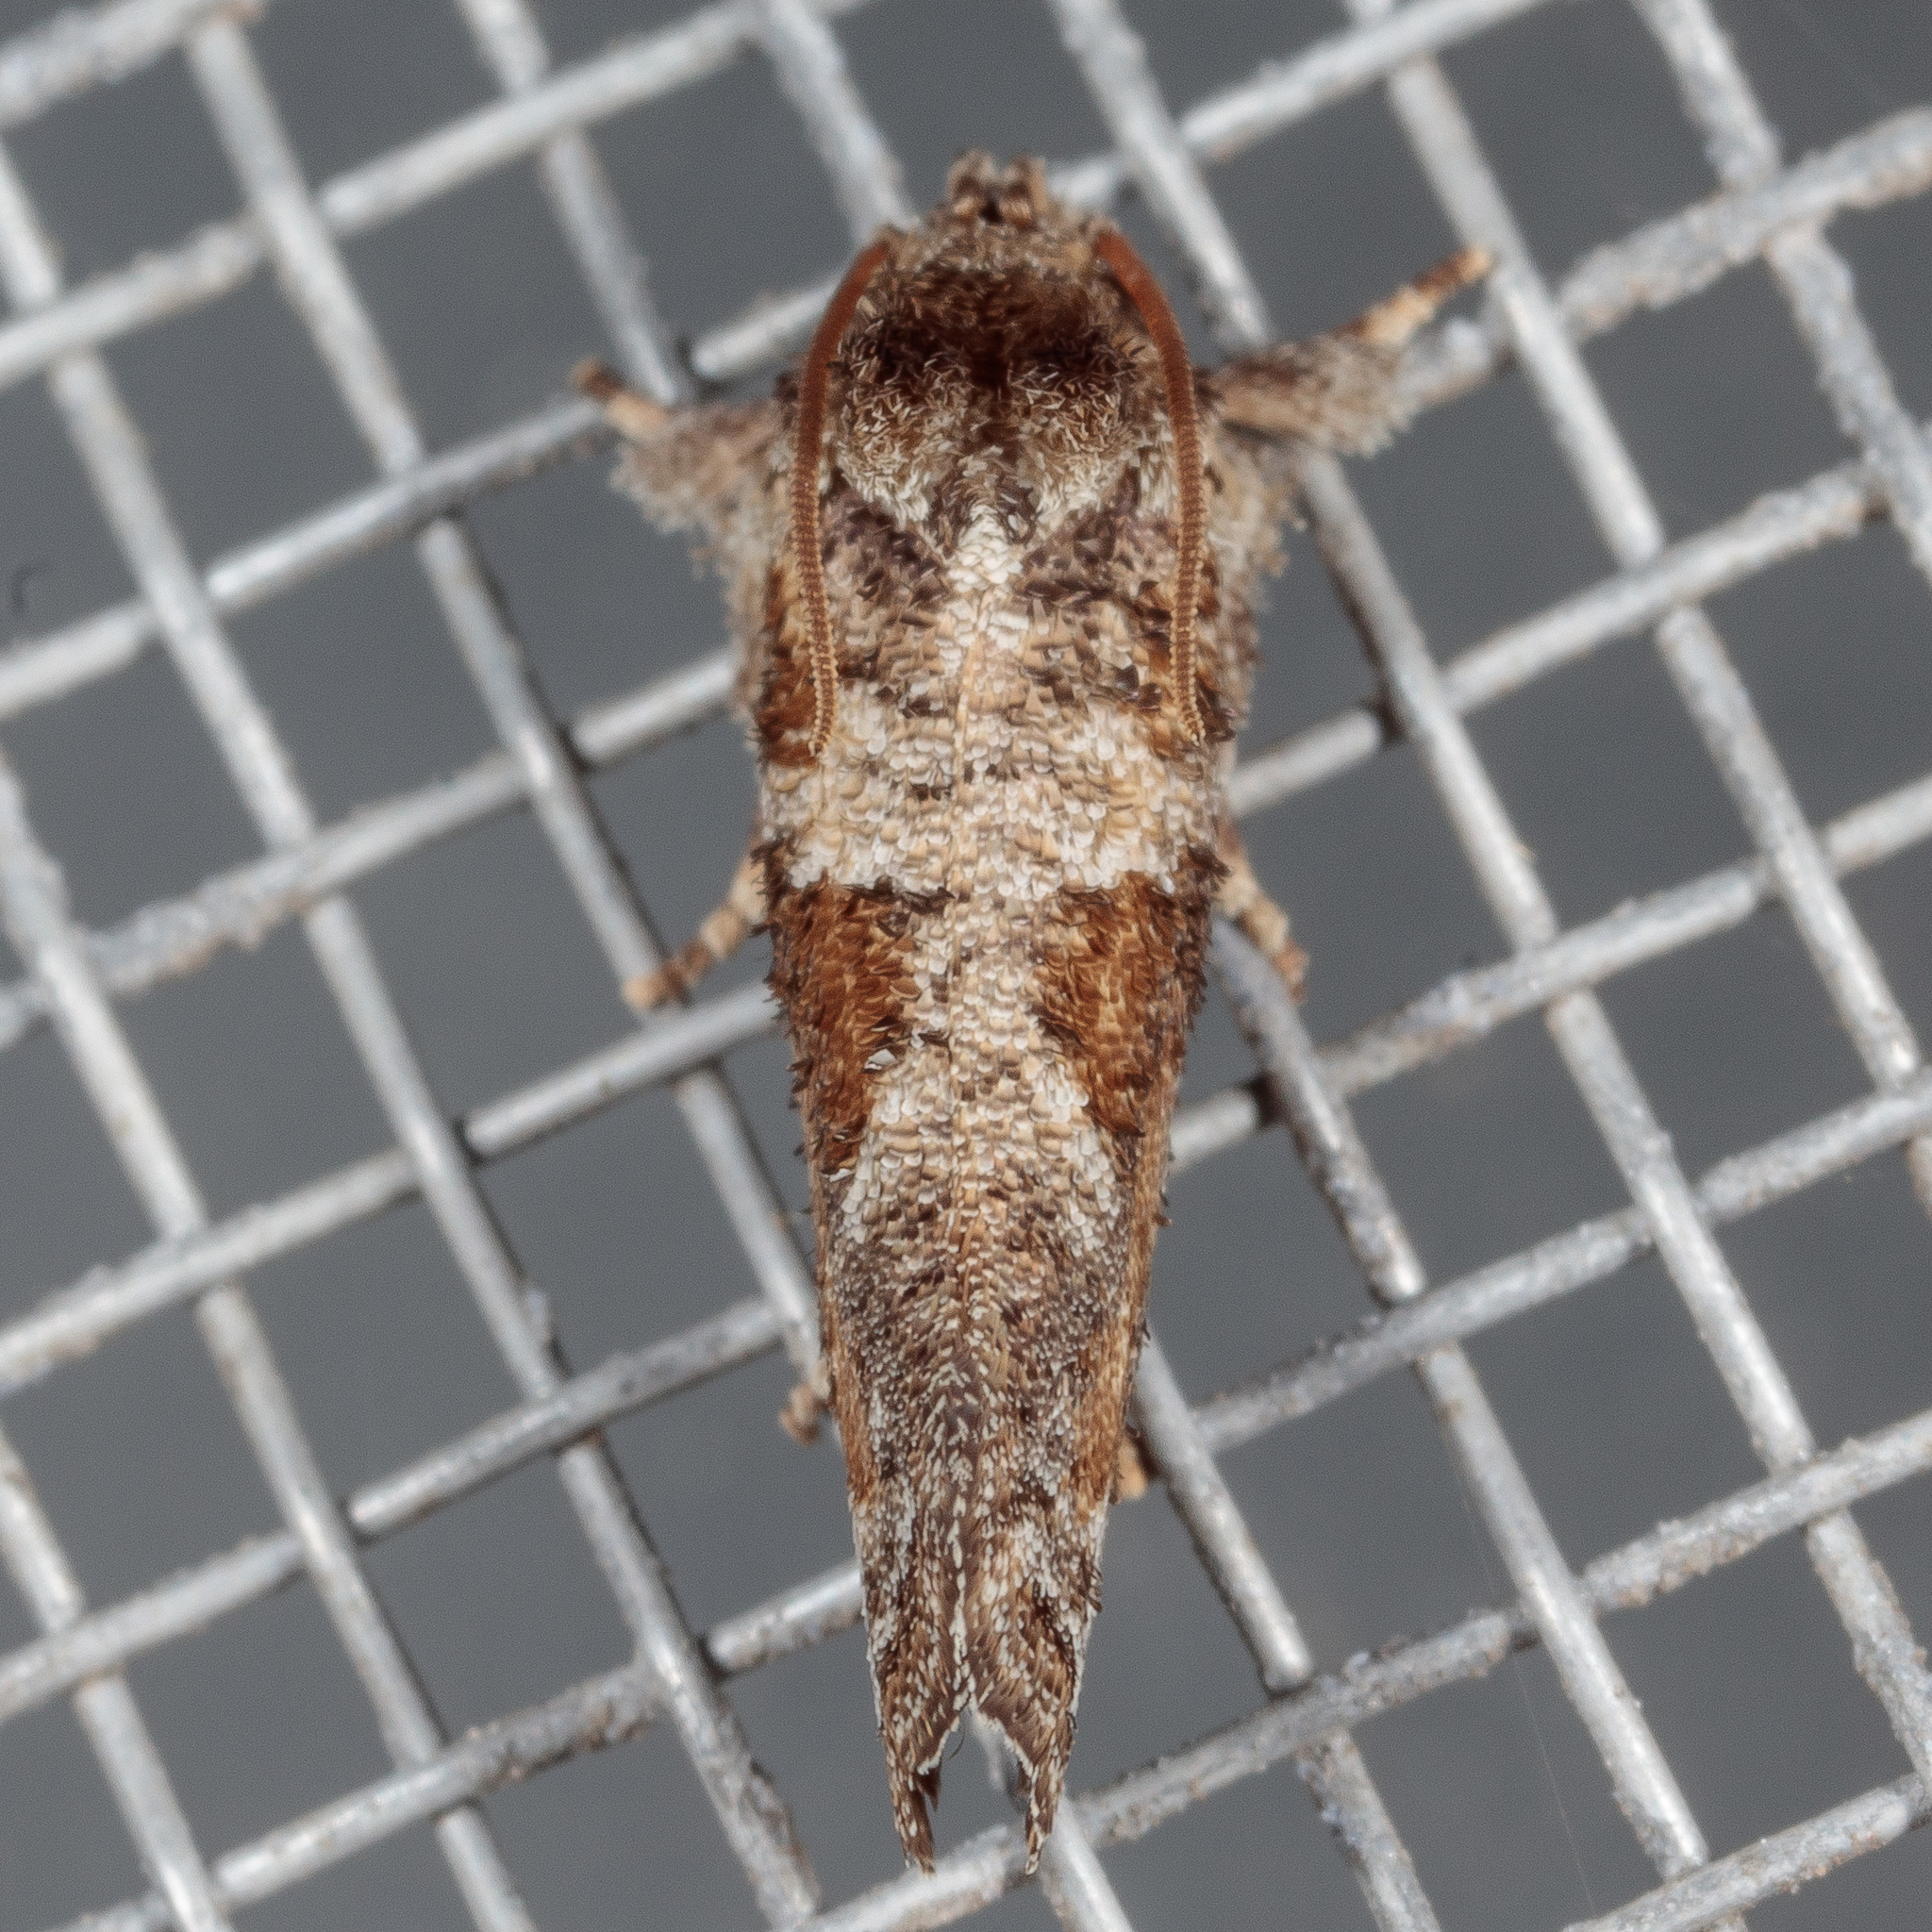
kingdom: Animalia
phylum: Arthropoda
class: Insecta
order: Lepidoptera
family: Tineidae
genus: Acrolophus
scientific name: Acrolophus piger
